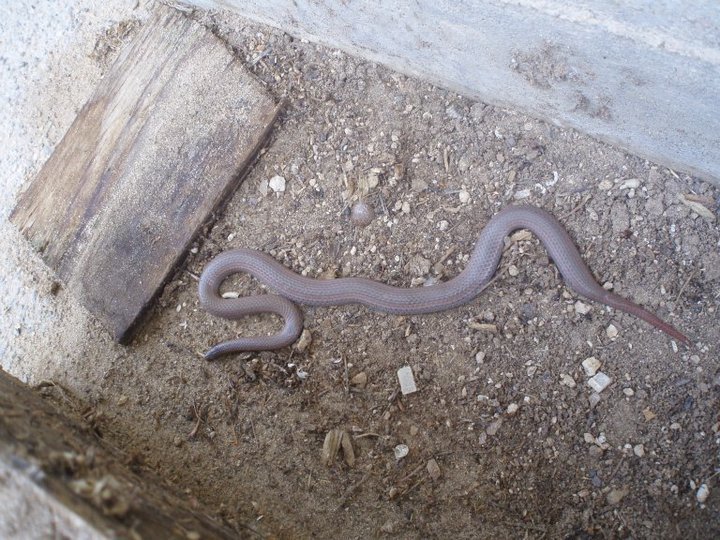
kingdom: Animalia
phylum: Chordata
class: Squamata
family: Colubridae
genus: Contia
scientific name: Contia tenuis
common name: Sharptail snake
